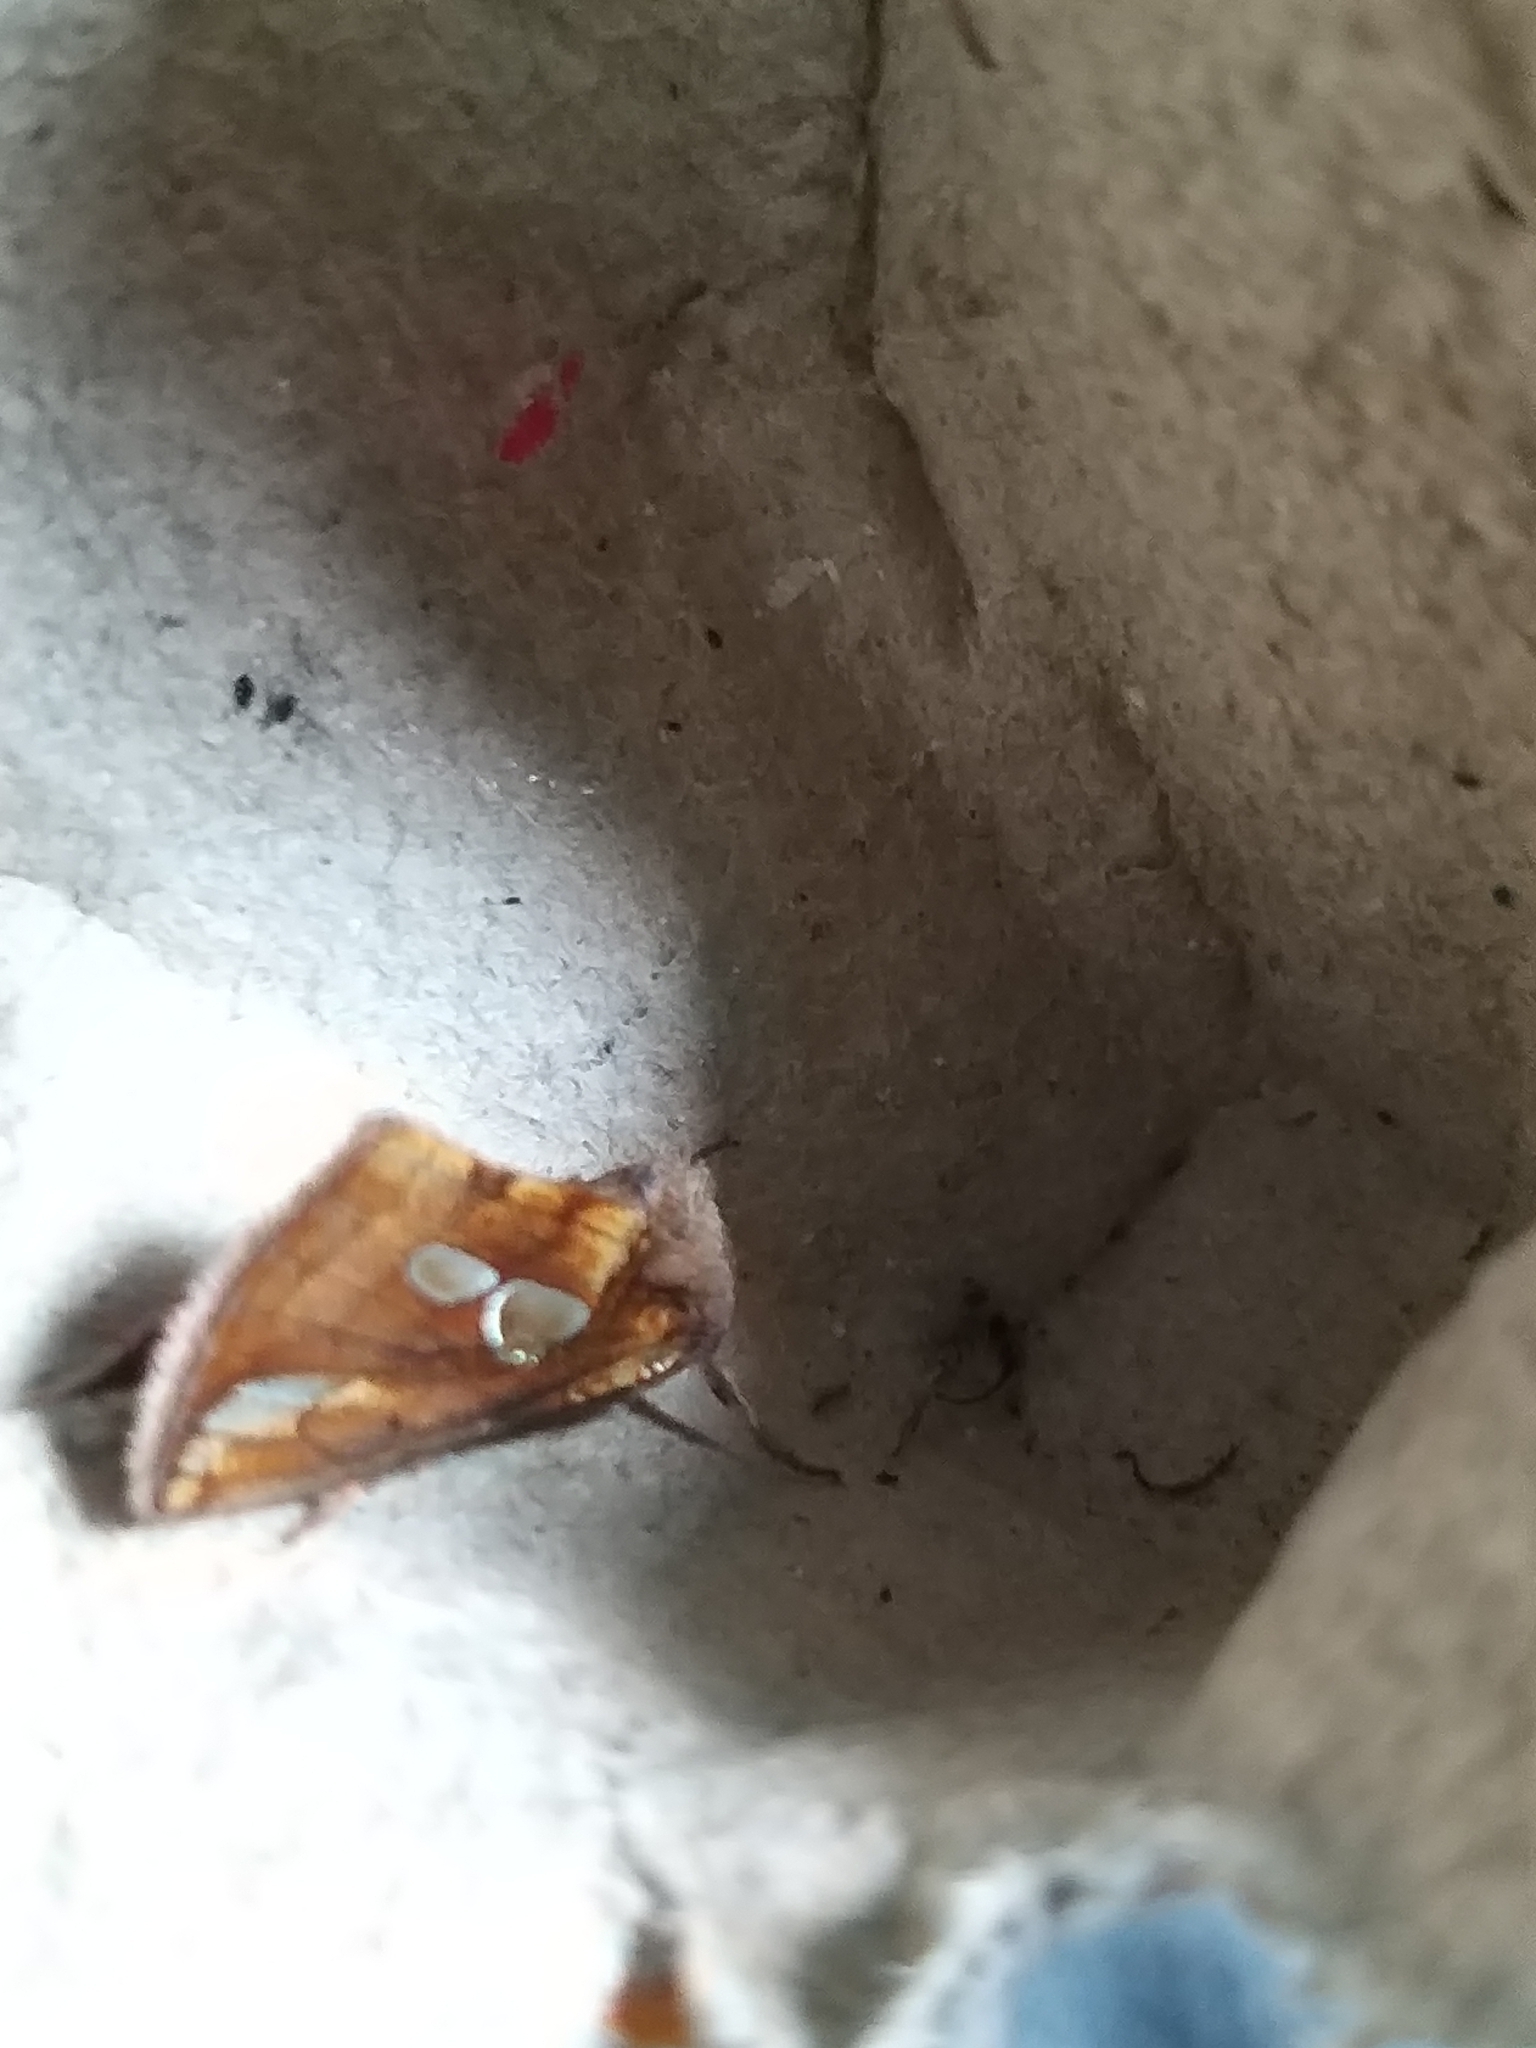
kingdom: Animalia
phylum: Arthropoda
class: Insecta
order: Lepidoptera
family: Noctuidae
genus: Plusia
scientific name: Plusia festucae
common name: Gold spot
